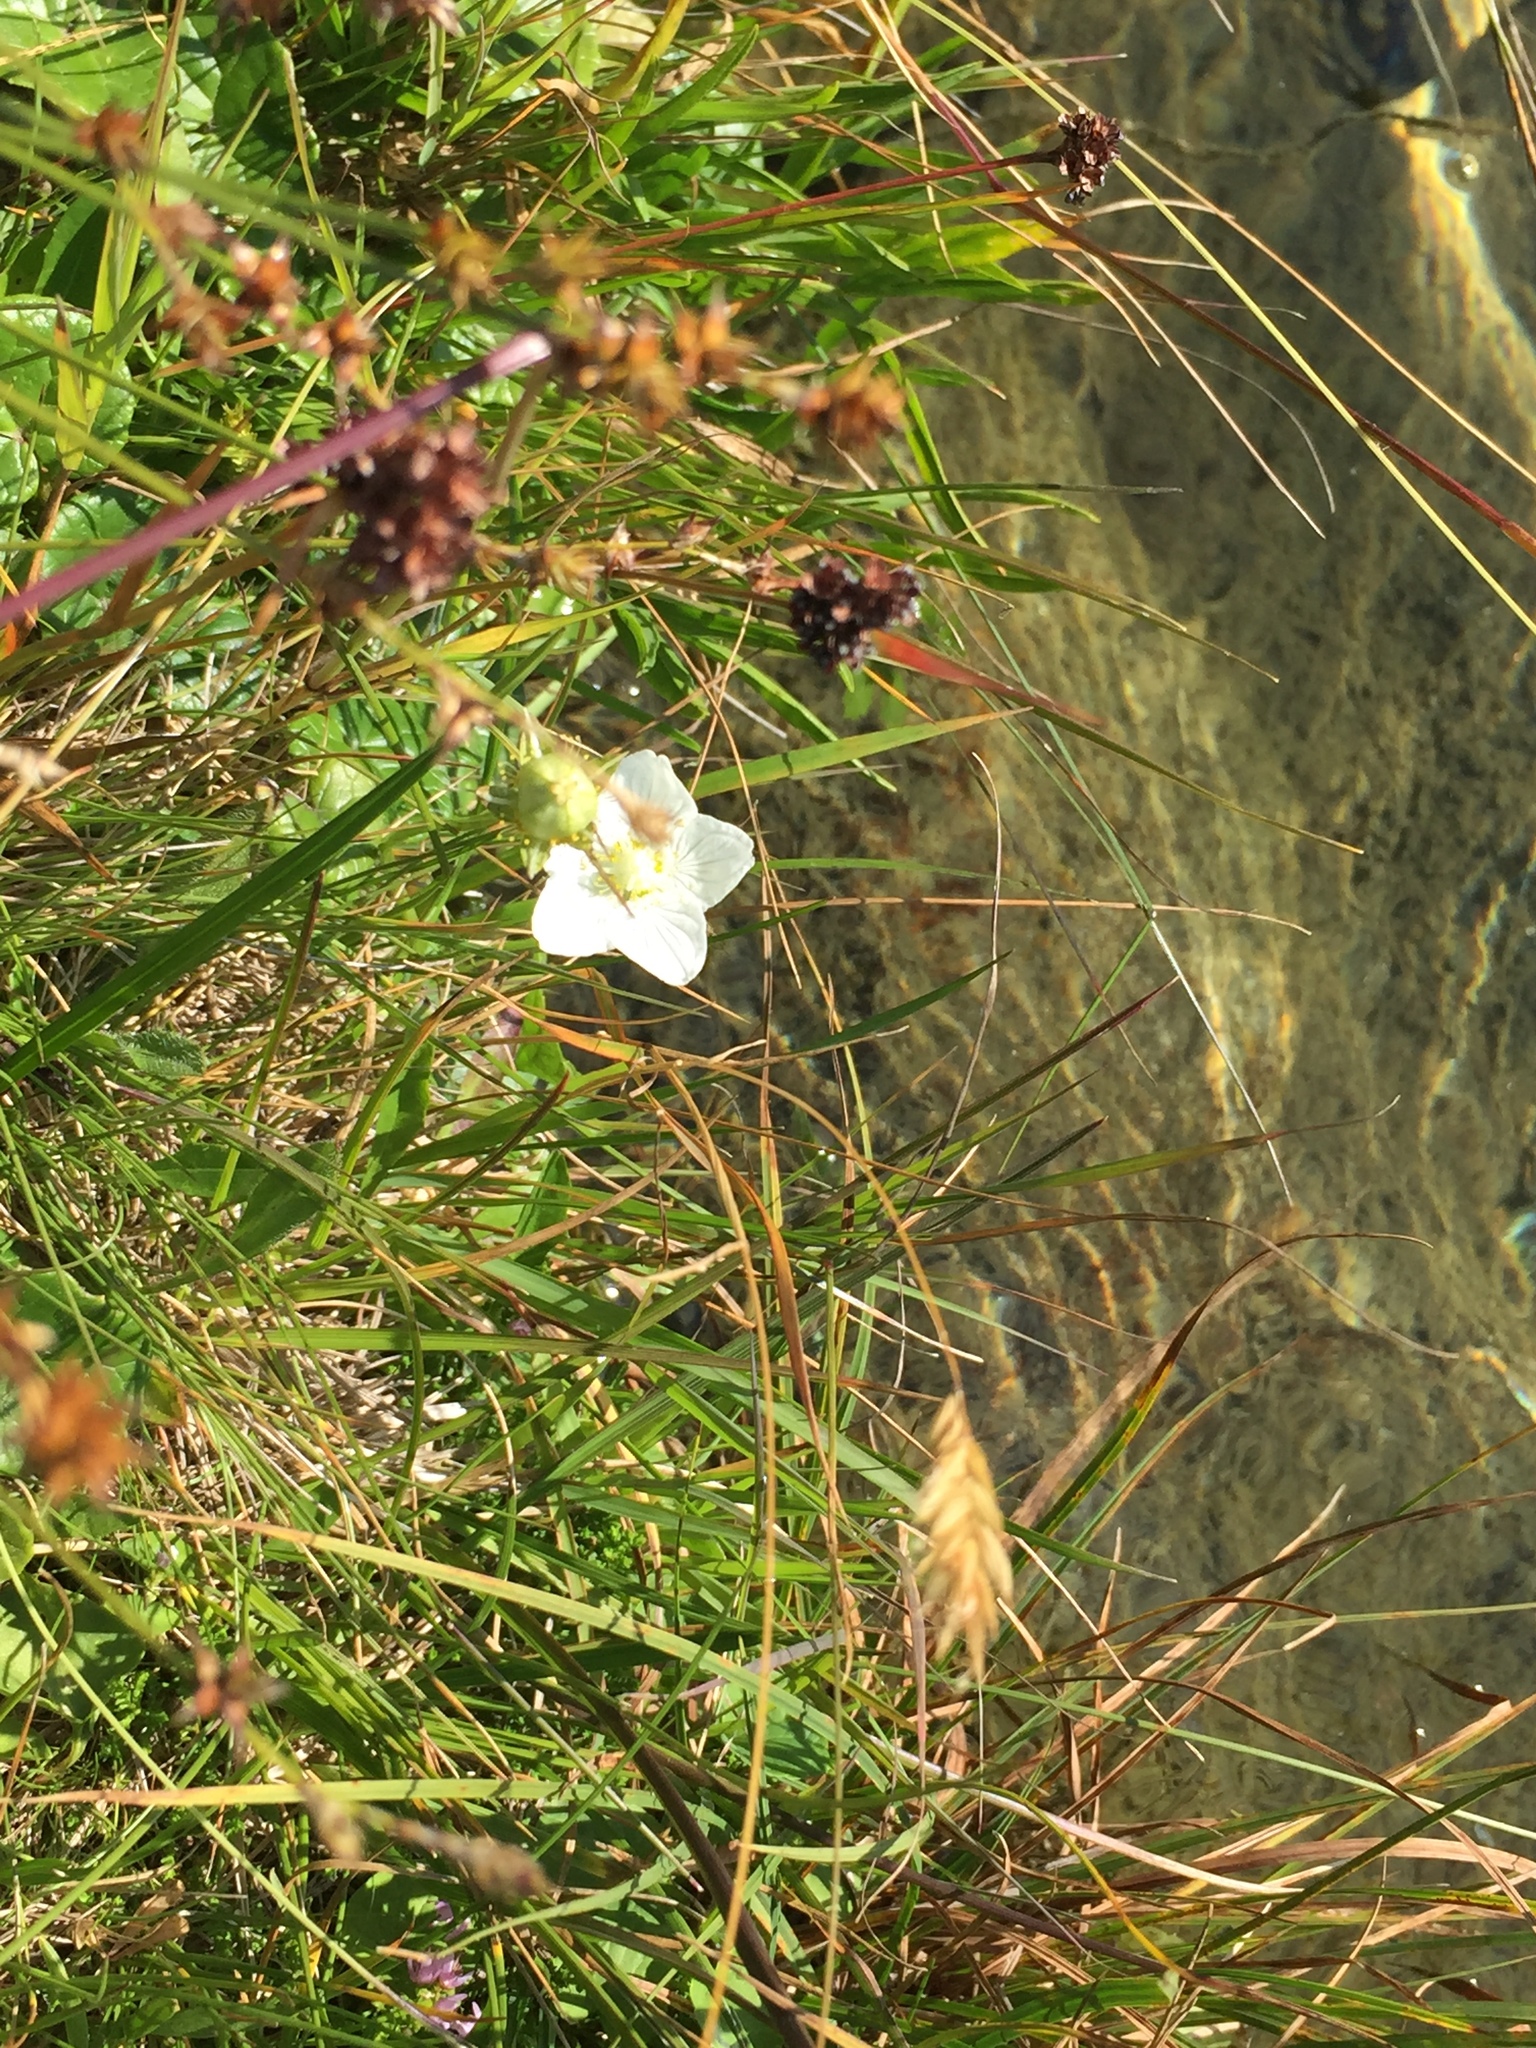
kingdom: Plantae
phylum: Tracheophyta
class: Magnoliopsida
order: Asterales
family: Asteraceae
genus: Carlina
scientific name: Carlina acaulis
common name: Stemless carline thistle
